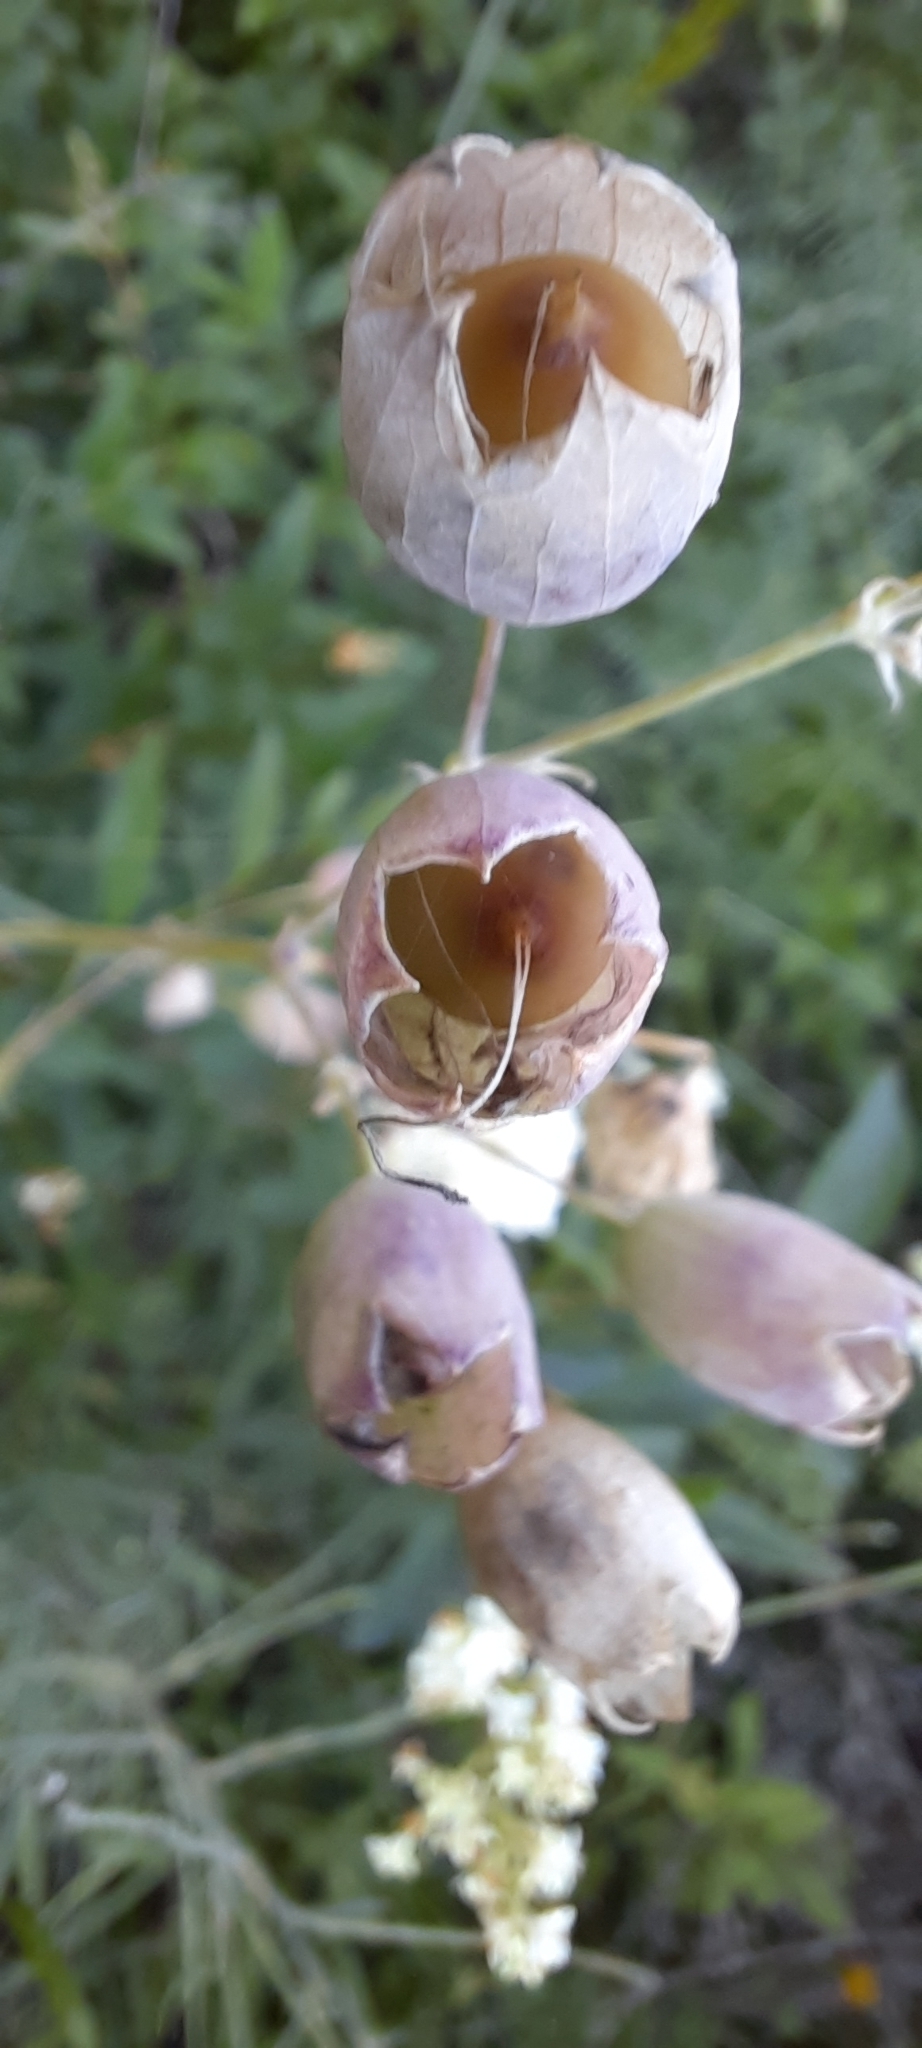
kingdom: Plantae
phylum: Tracheophyta
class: Magnoliopsida
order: Caryophyllales
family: Caryophyllaceae
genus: Silene
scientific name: Silene vulgaris
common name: Bladder campion
